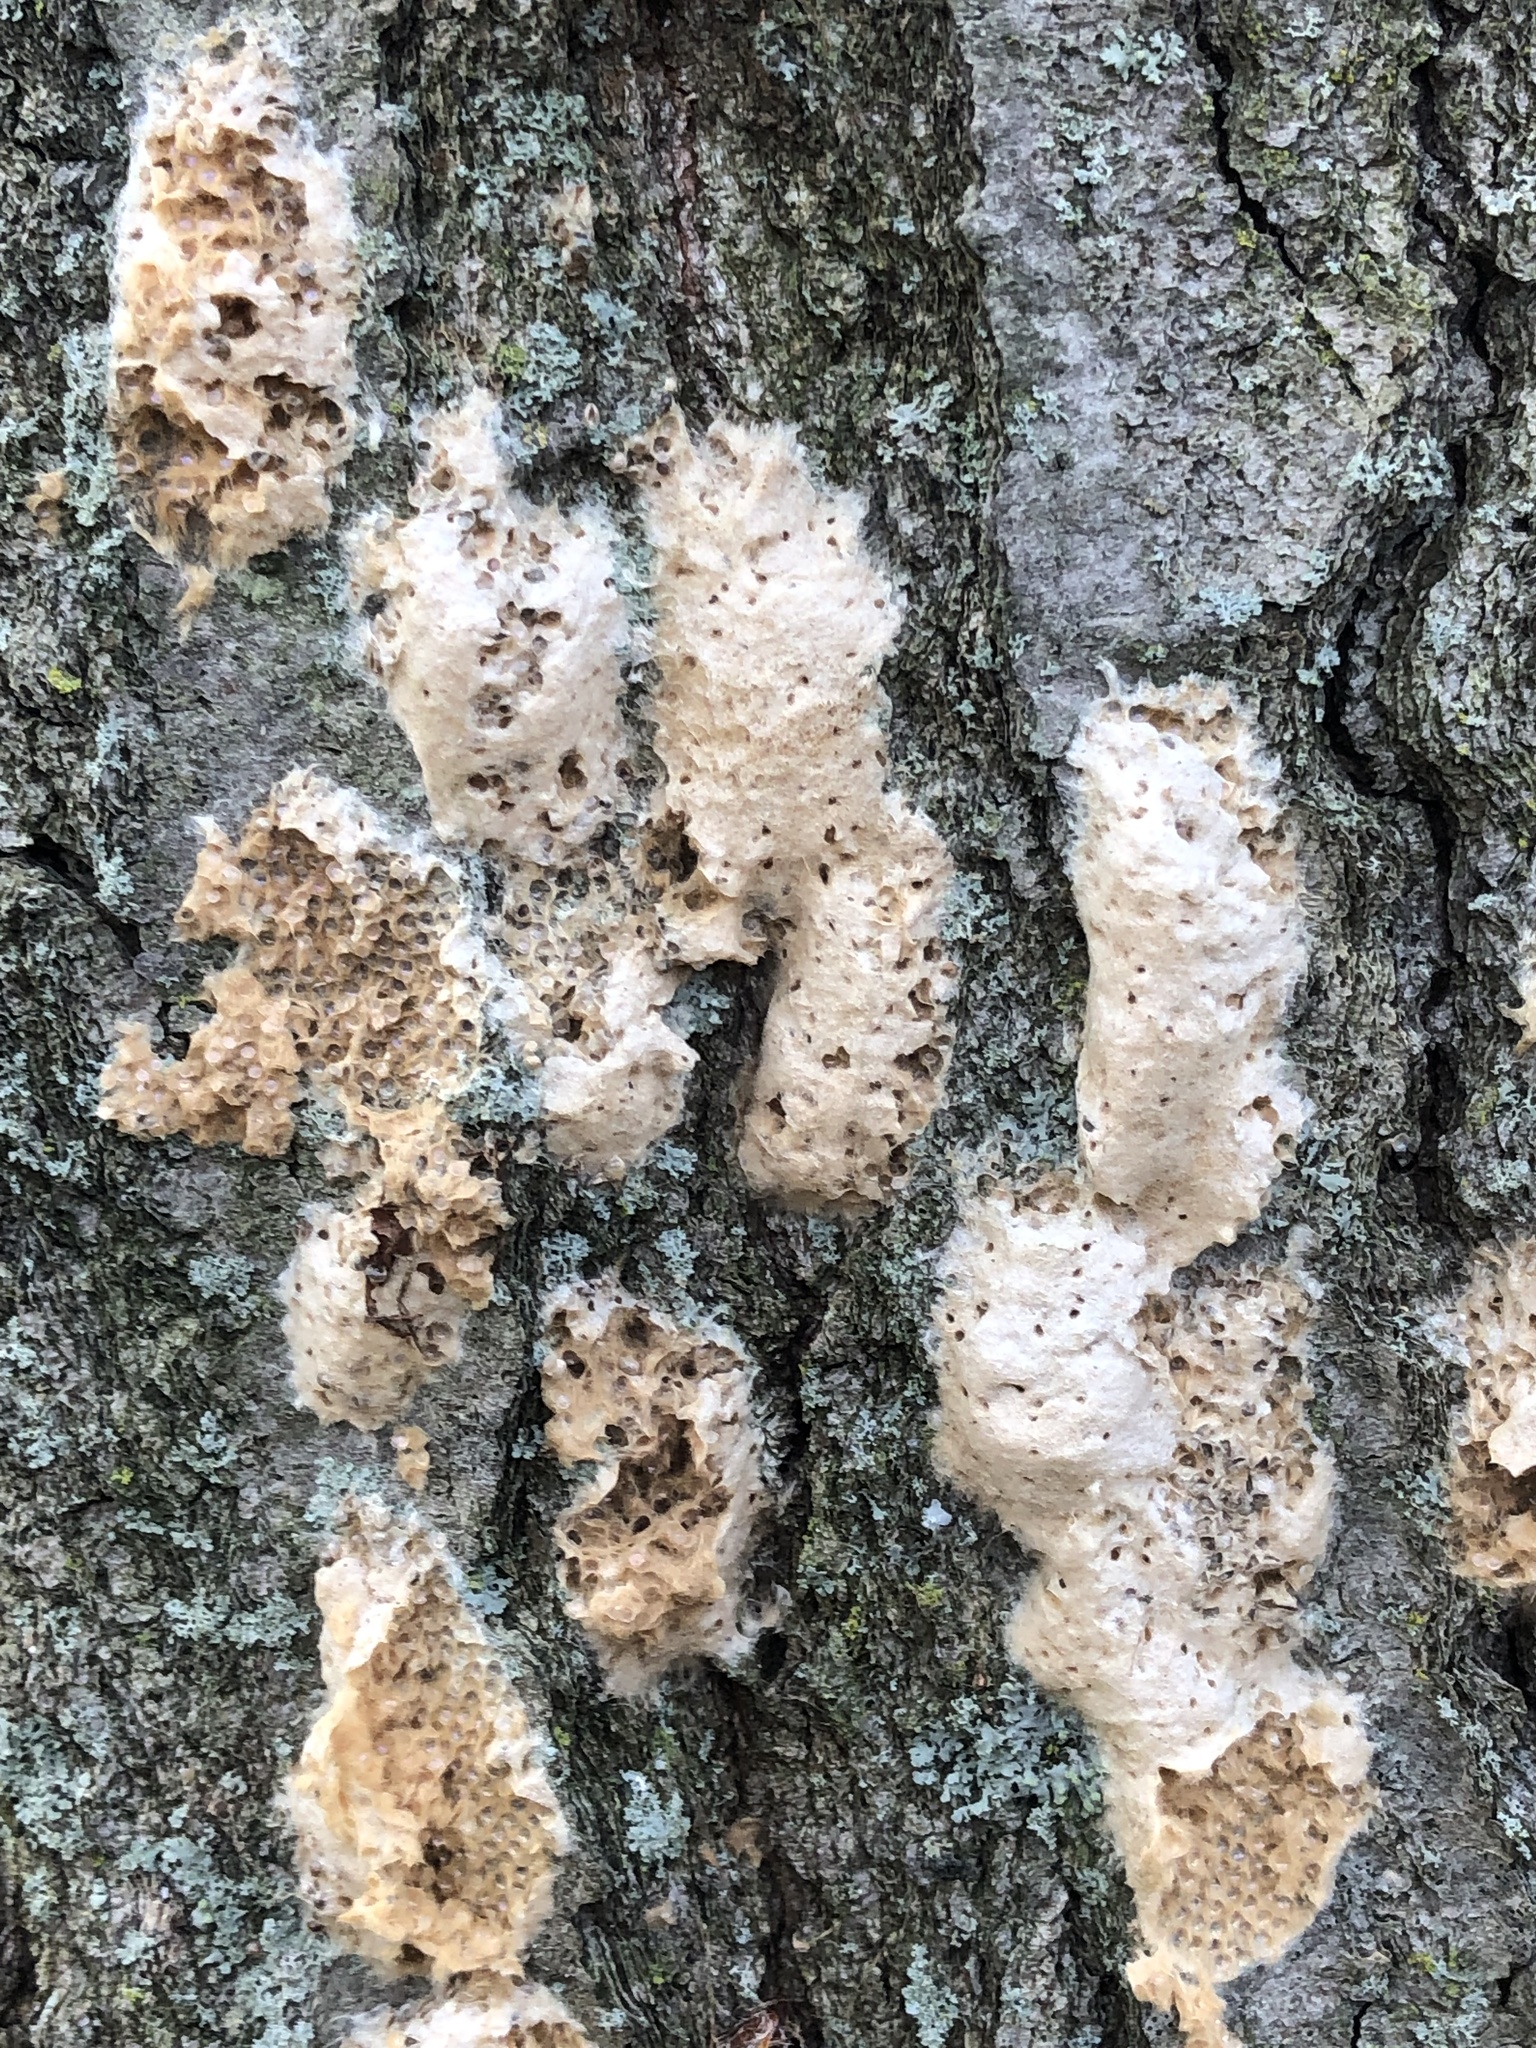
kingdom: Animalia
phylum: Arthropoda
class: Insecta
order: Lepidoptera
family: Erebidae
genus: Lymantria
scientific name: Lymantria dispar
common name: Gypsy moth
